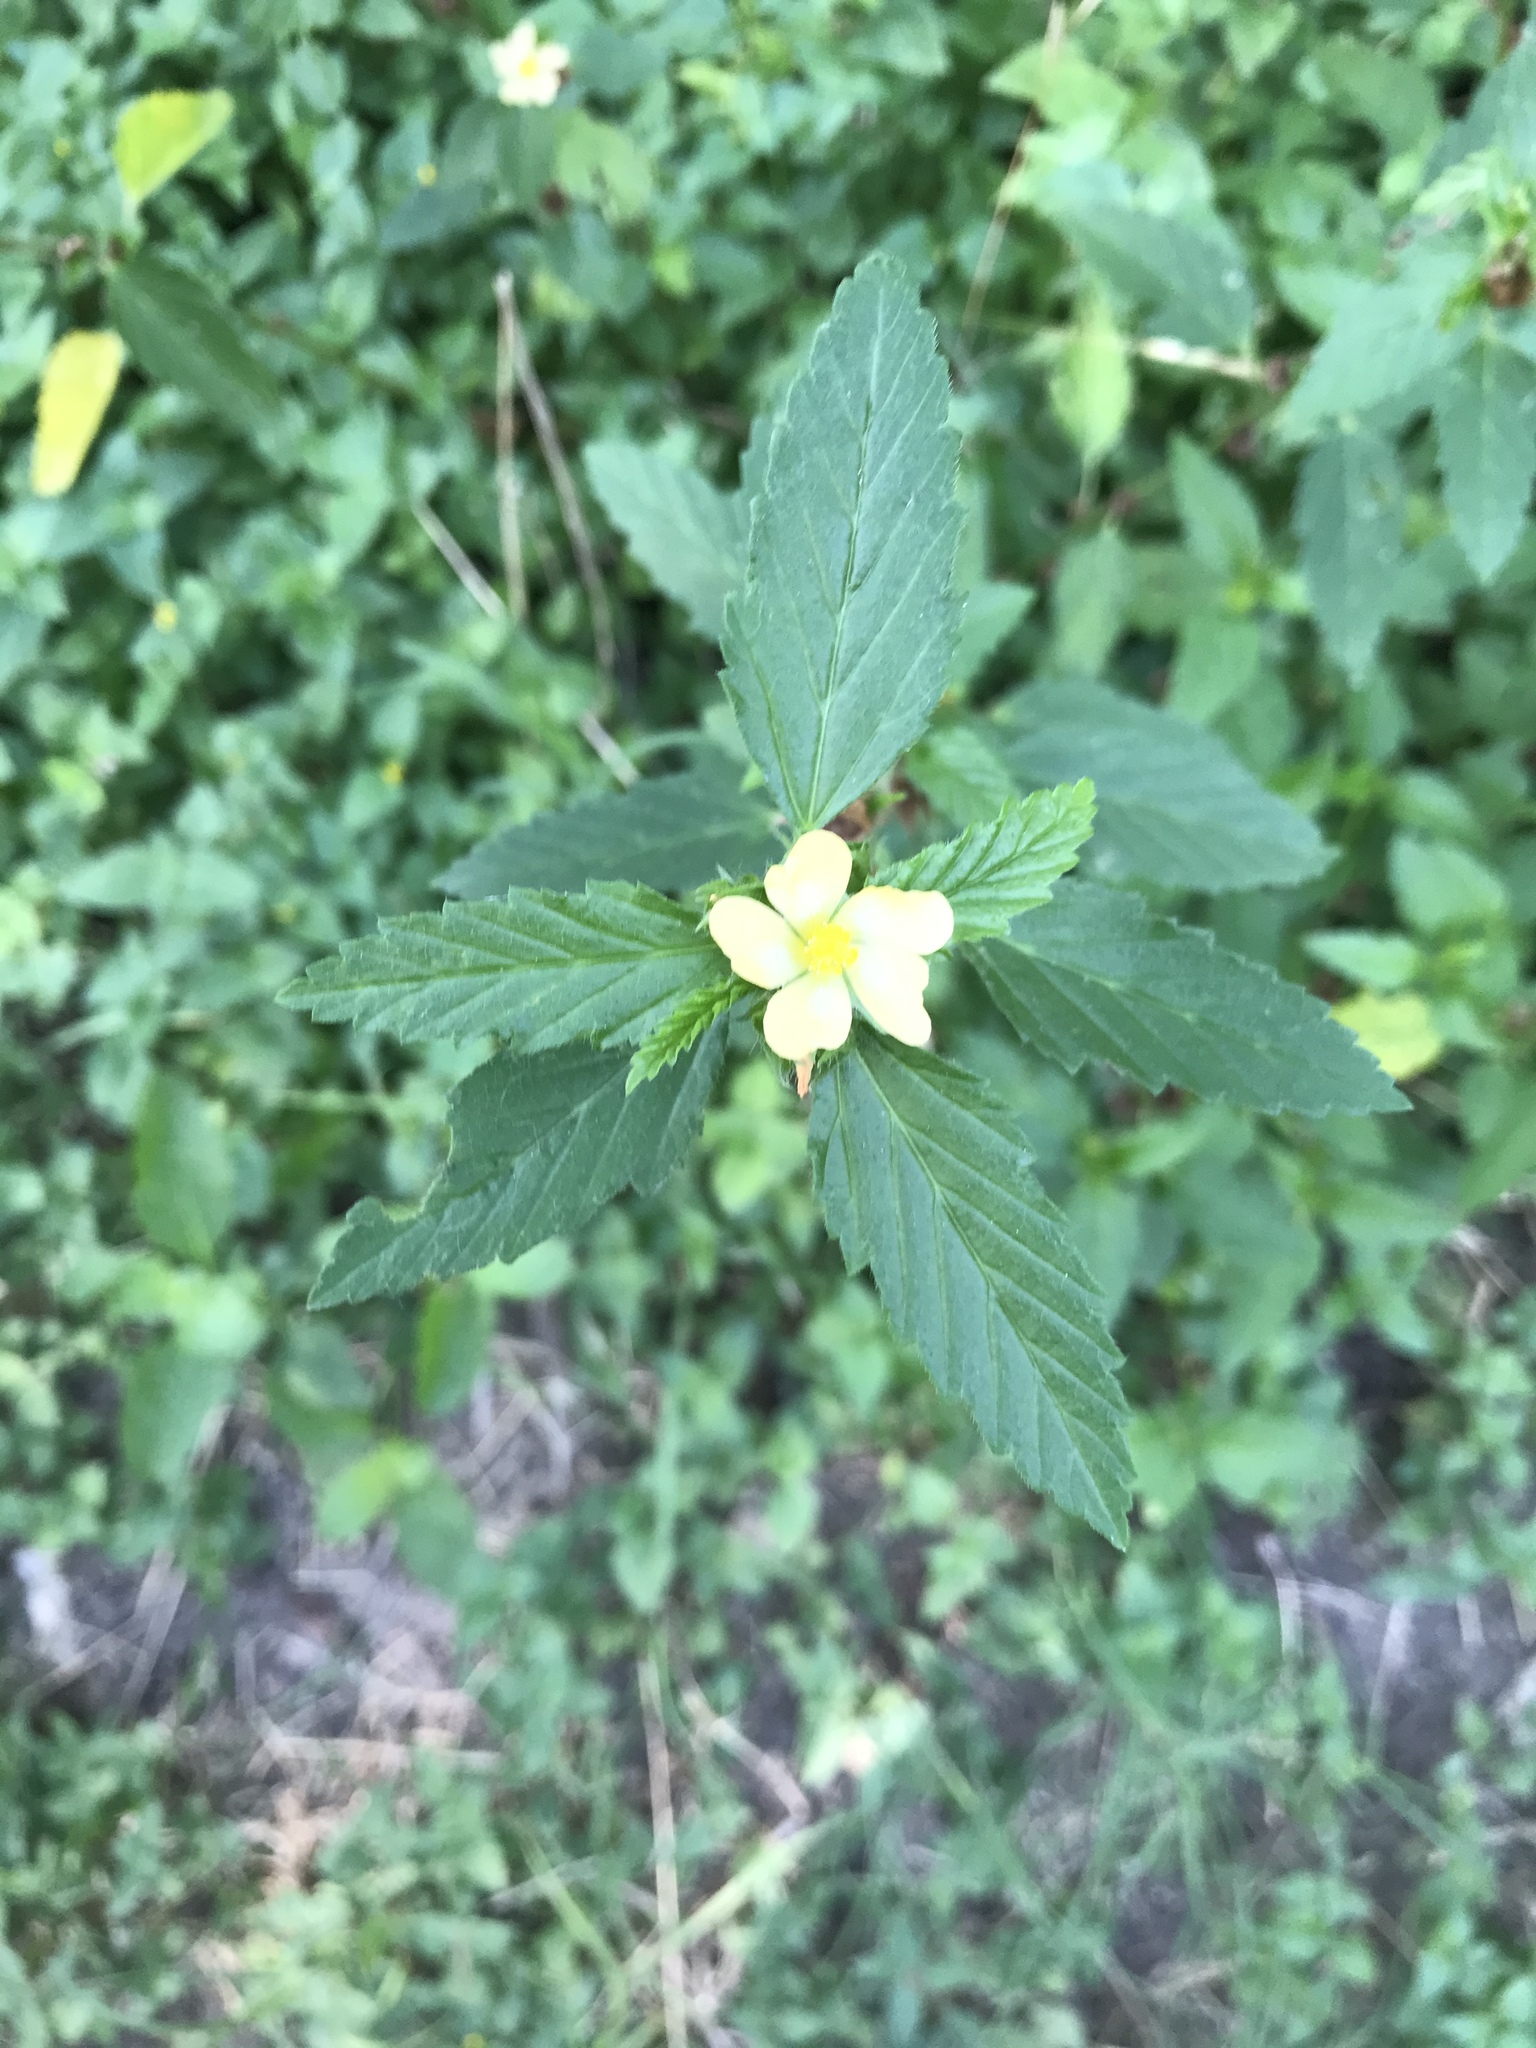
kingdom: Plantae
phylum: Tracheophyta
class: Magnoliopsida
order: Malvales
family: Malvaceae
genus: Malvastrum
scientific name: Malvastrum coromandelianum
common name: Threelobe false mallow
